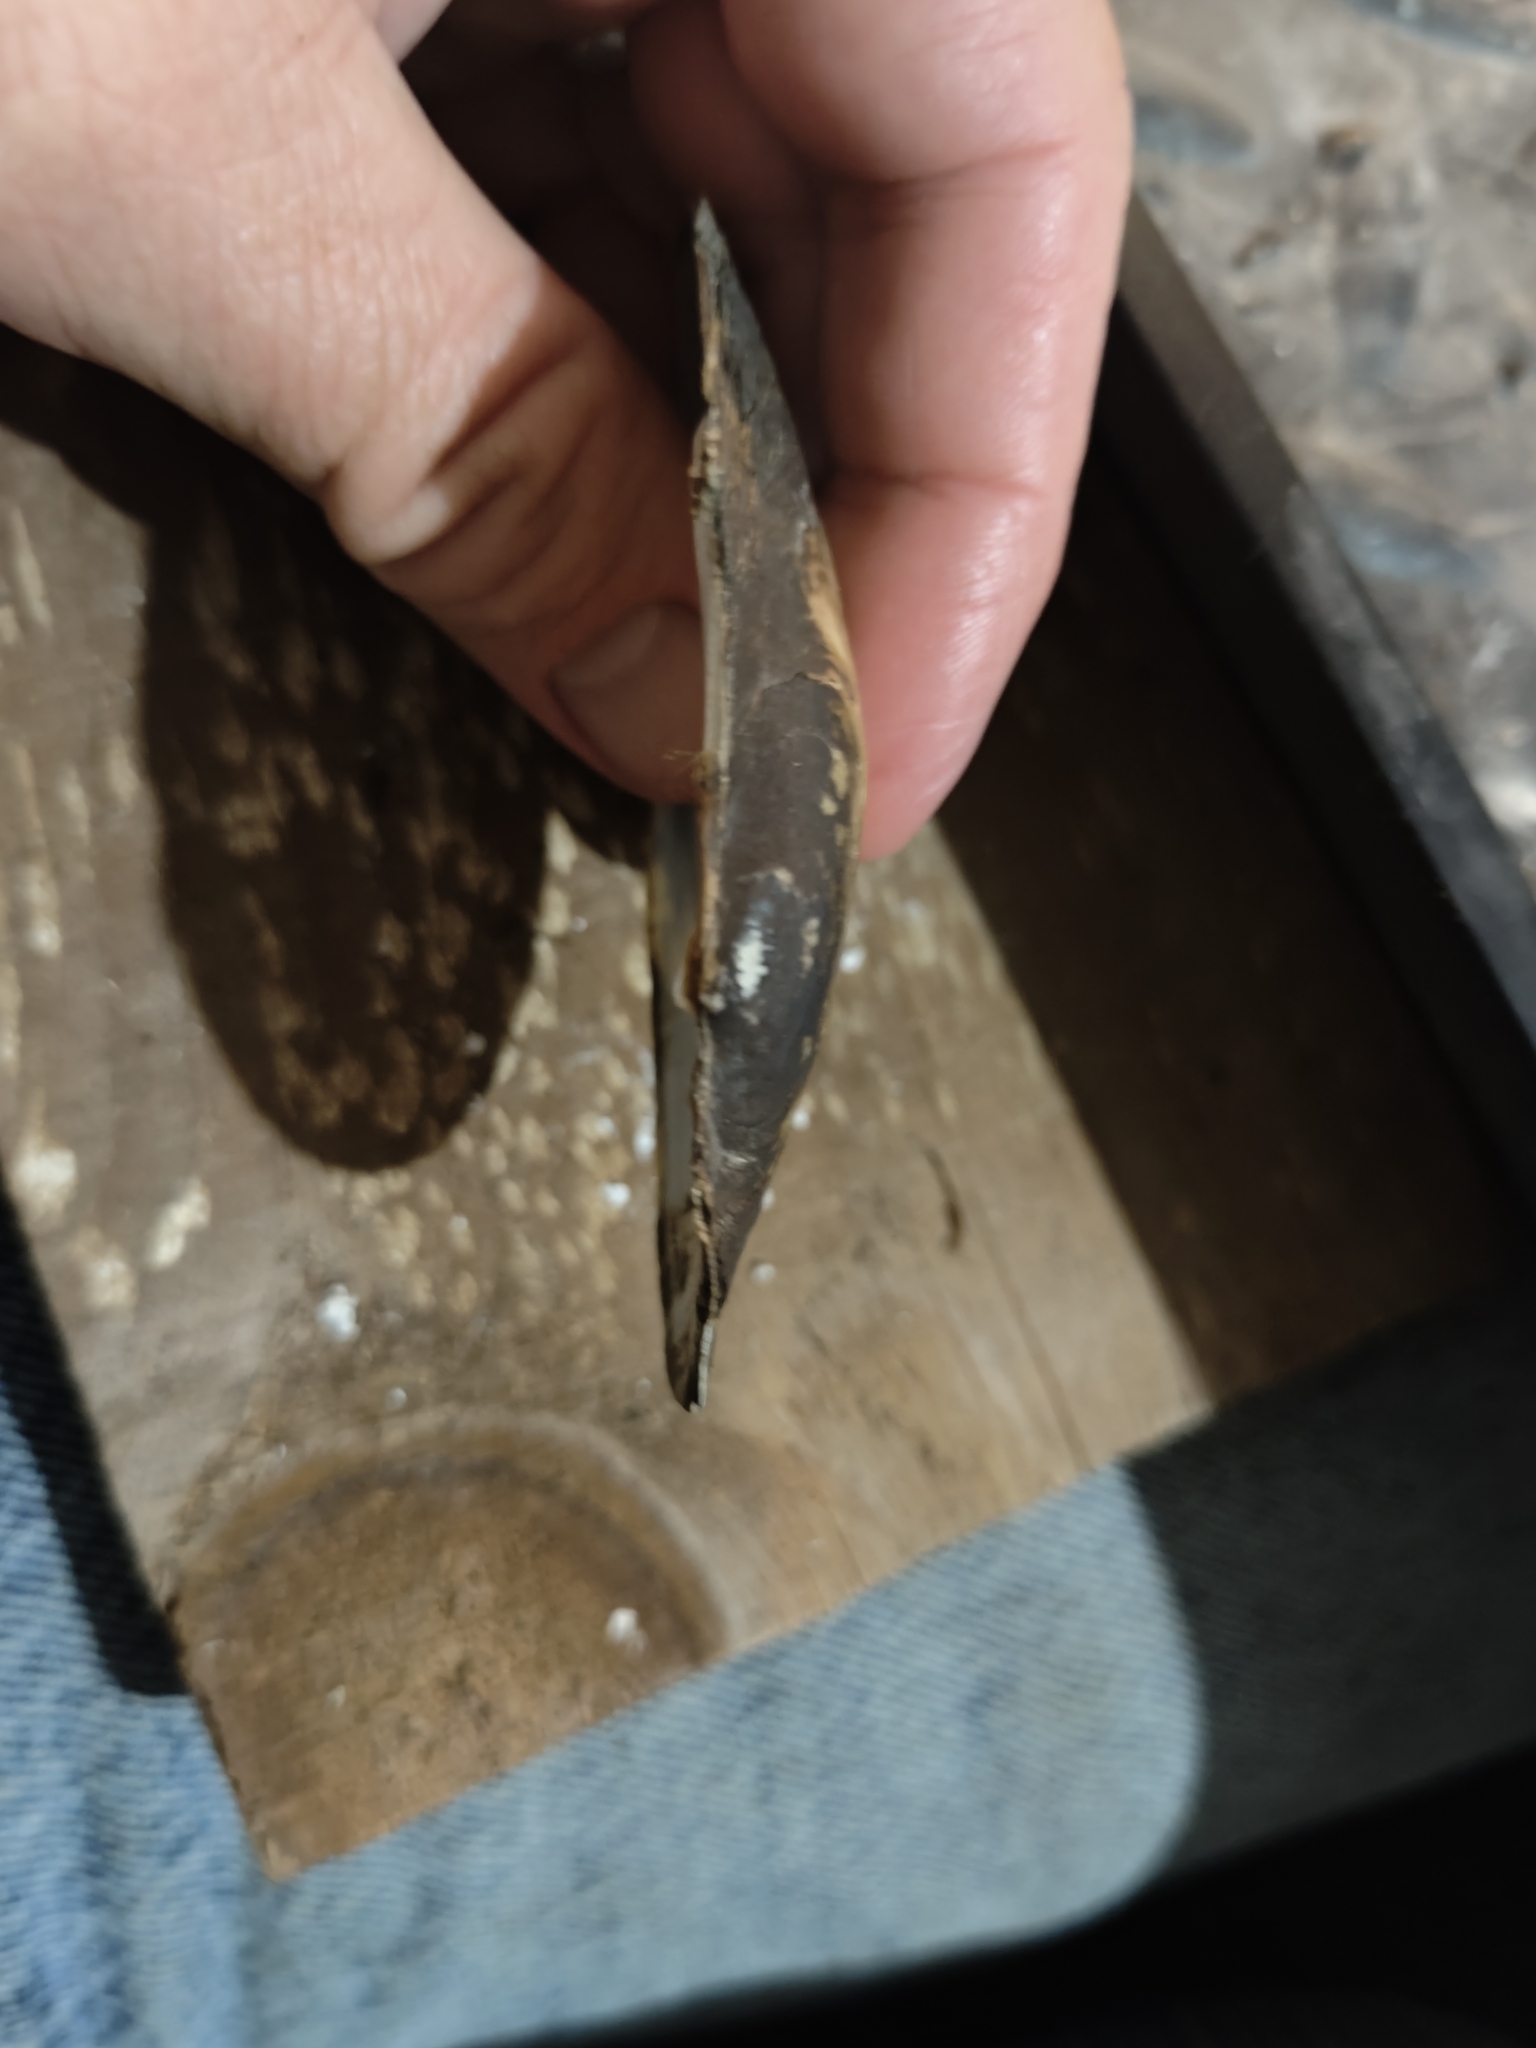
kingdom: Animalia
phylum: Mollusca
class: Bivalvia
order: Unionida
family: Unionidae
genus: Potamilus
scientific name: Potamilus fragilis
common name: Fragile papershell
